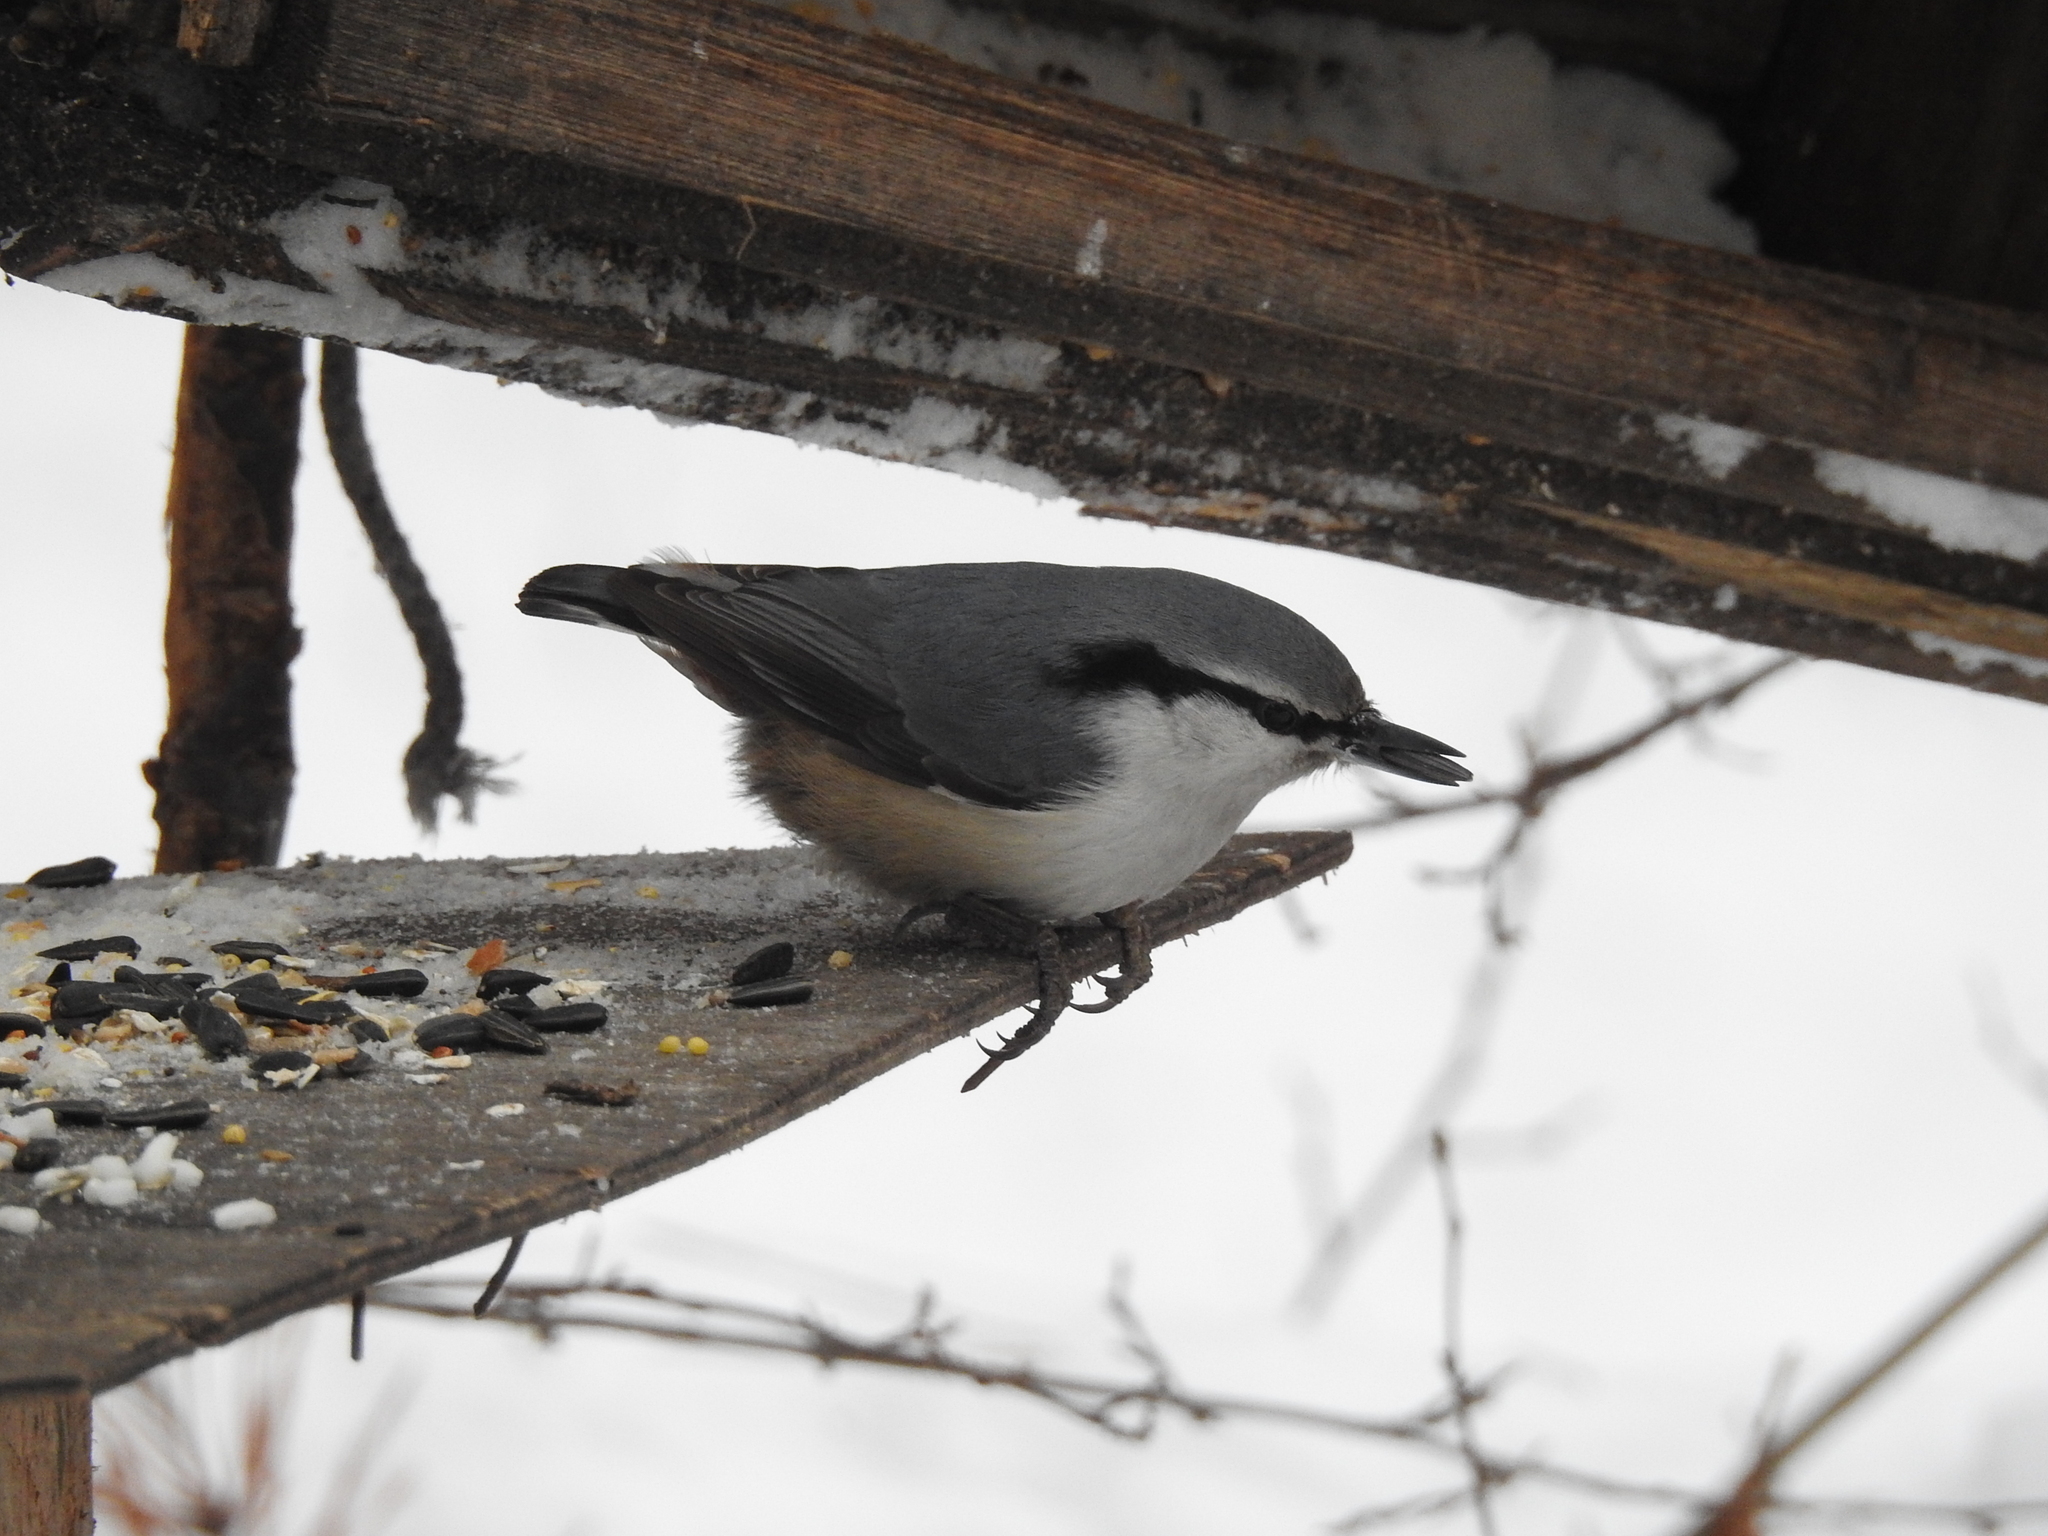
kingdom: Animalia
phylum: Chordata
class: Aves
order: Passeriformes
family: Sittidae
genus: Sitta
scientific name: Sitta europaea
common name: Eurasian nuthatch
